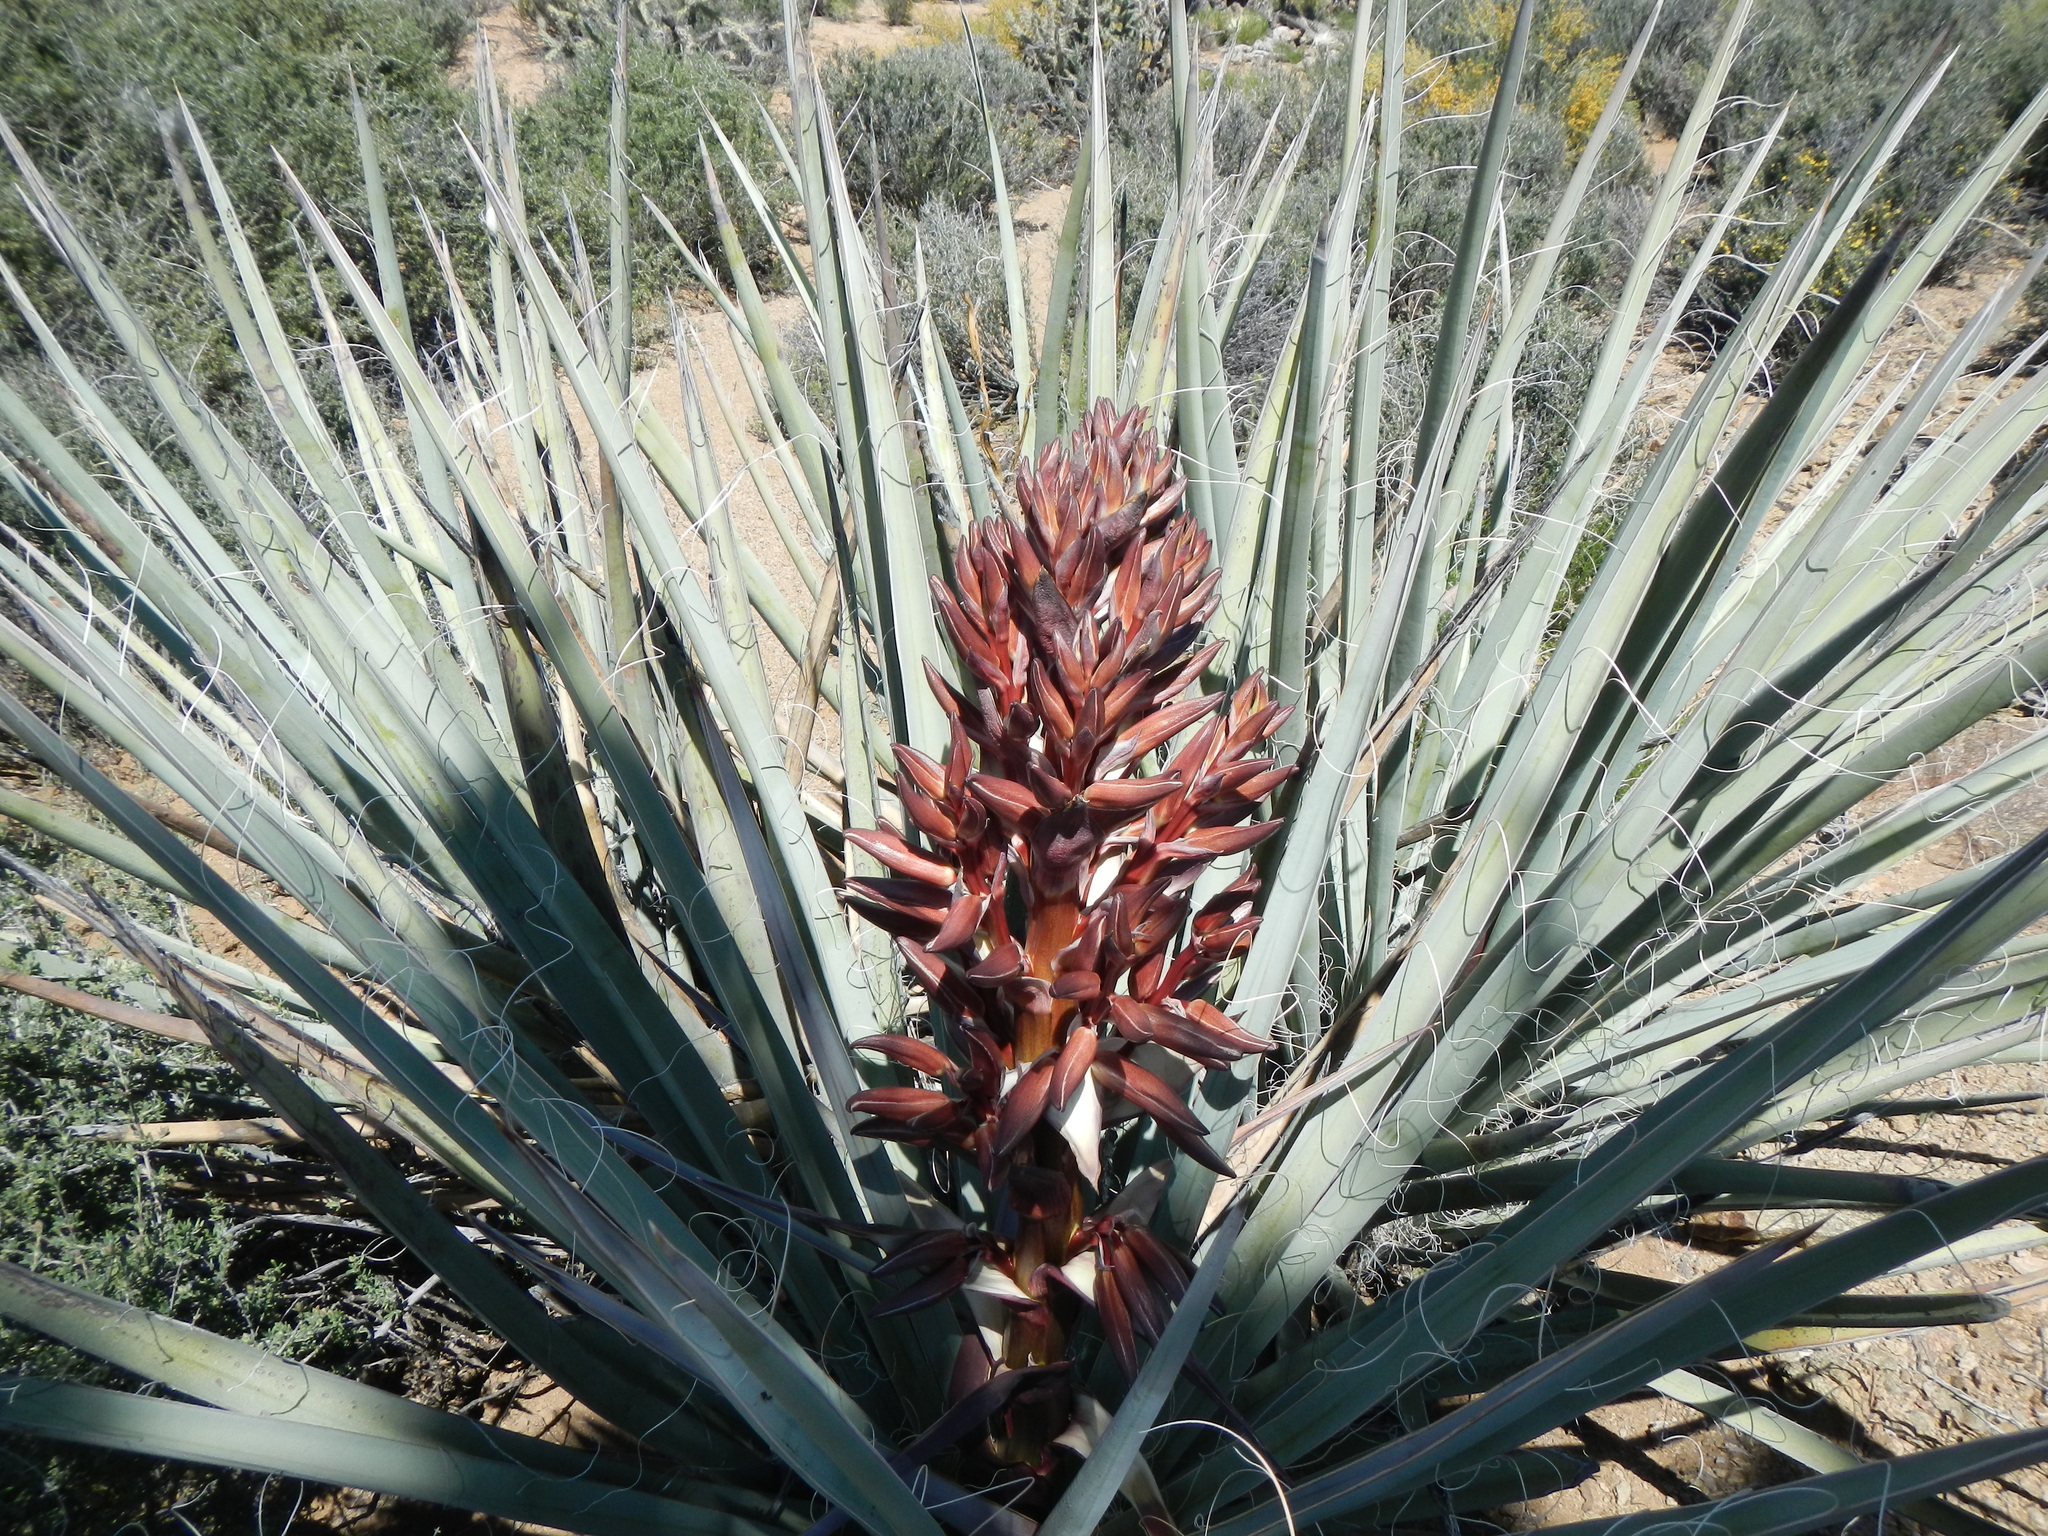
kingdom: Plantae
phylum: Tracheophyta
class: Liliopsida
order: Asparagales
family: Asparagaceae
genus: Yucca
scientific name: Yucca baccata
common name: Banana yucca
